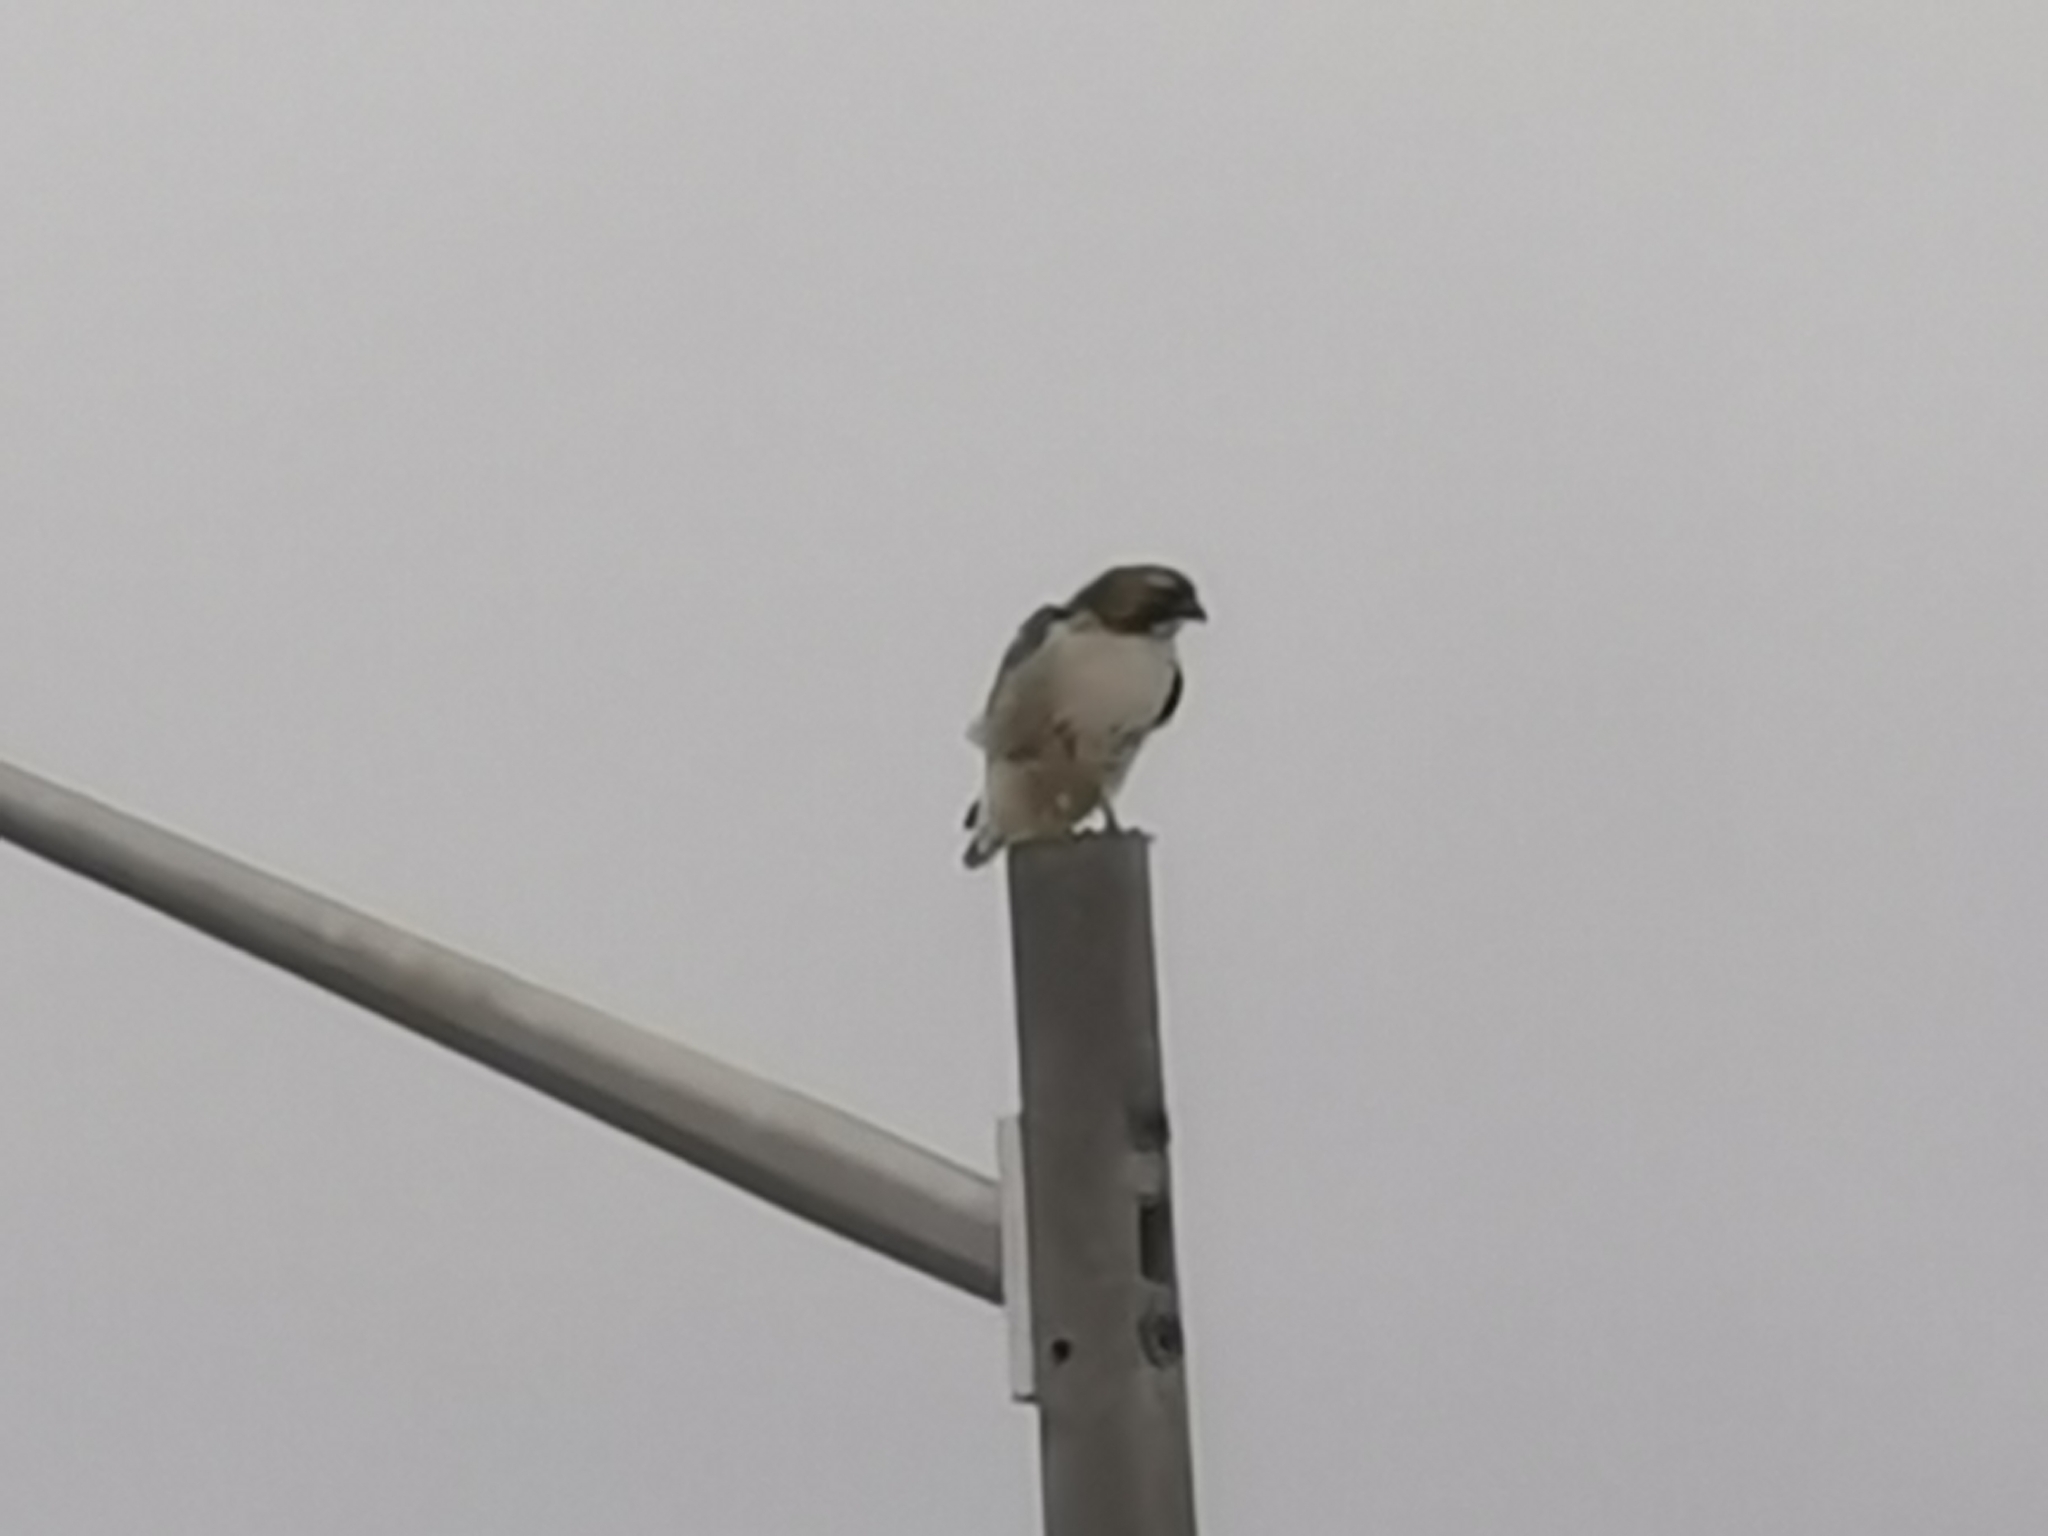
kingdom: Animalia
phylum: Chordata
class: Aves
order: Accipitriformes
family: Accipitridae
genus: Buteo
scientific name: Buteo jamaicensis
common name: Red-tailed hawk
